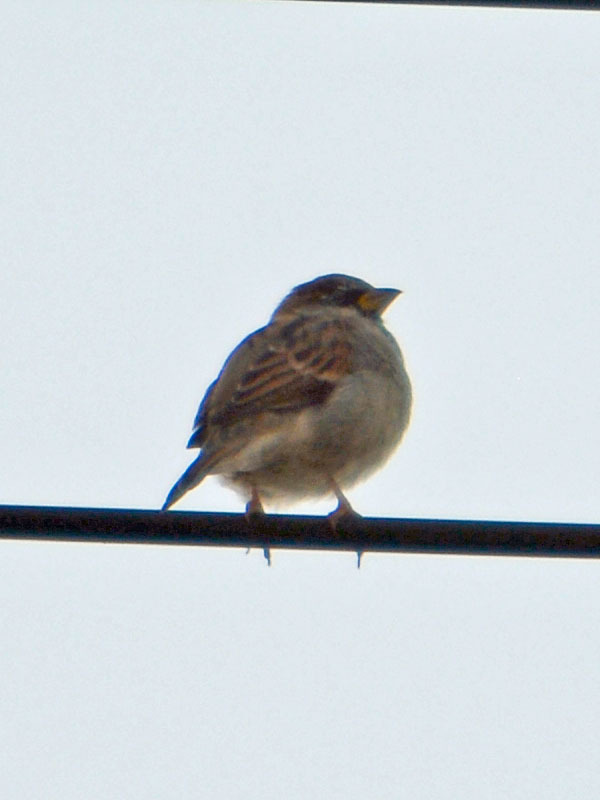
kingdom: Animalia
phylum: Chordata
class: Aves
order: Passeriformes
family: Passeridae
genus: Passer
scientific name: Passer domesticus
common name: House sparrow
